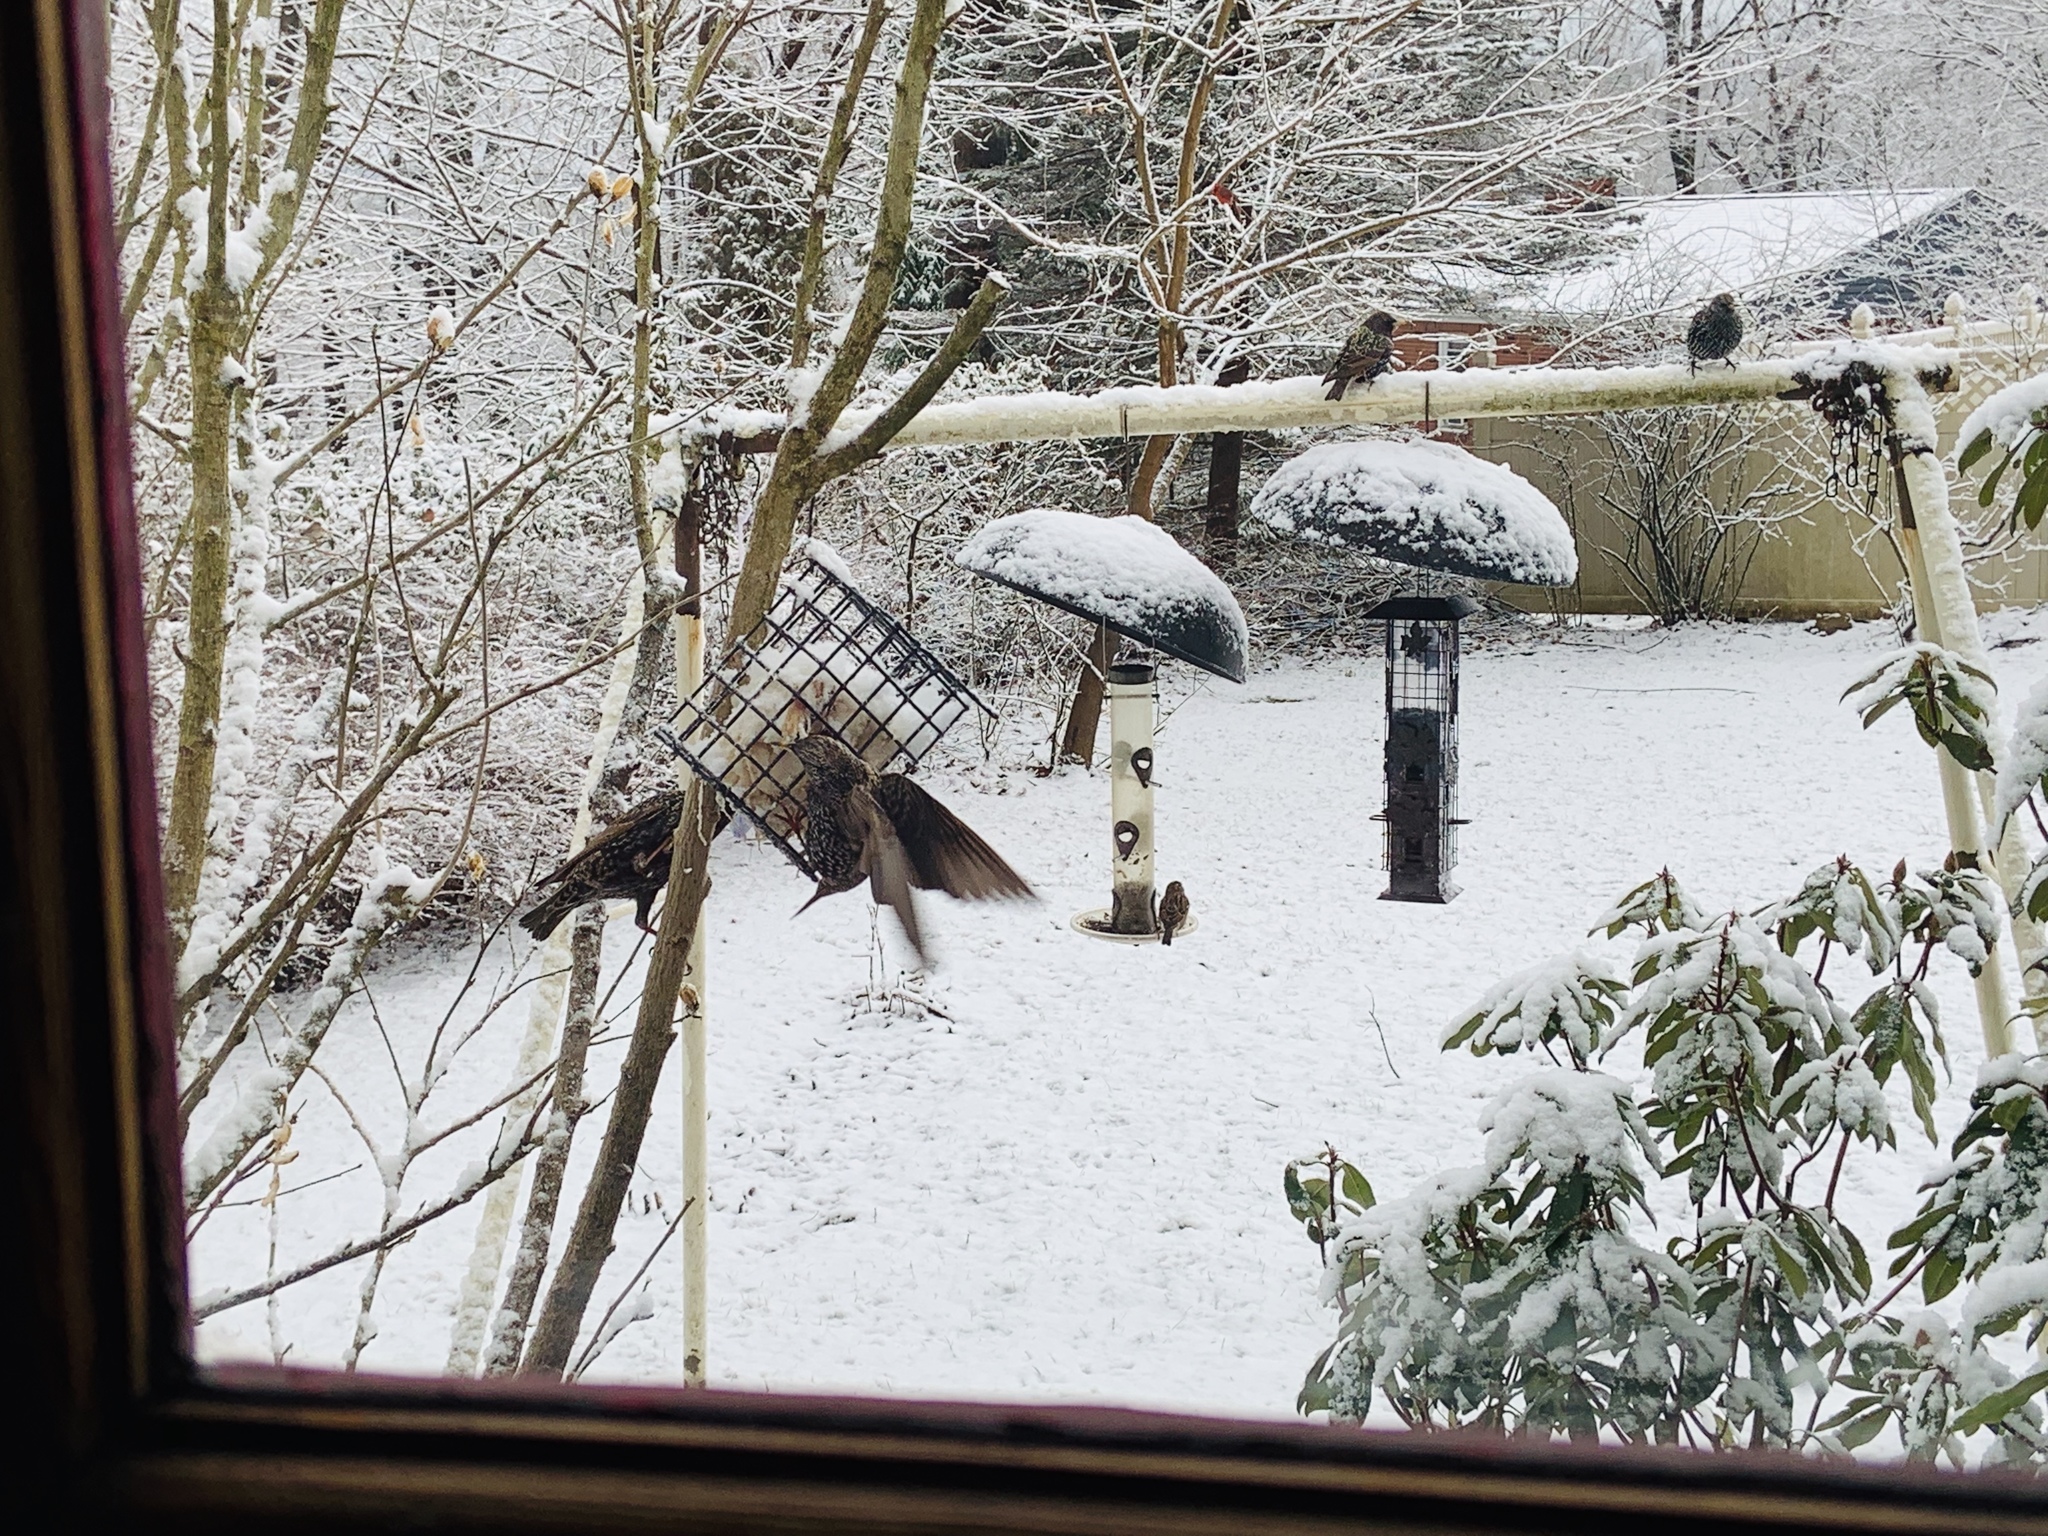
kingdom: Animalia
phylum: Chordata
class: Aves
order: Passeriformes
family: Sturnidae
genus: Sturnus
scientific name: Sturnus vulgaris
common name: Common starling
